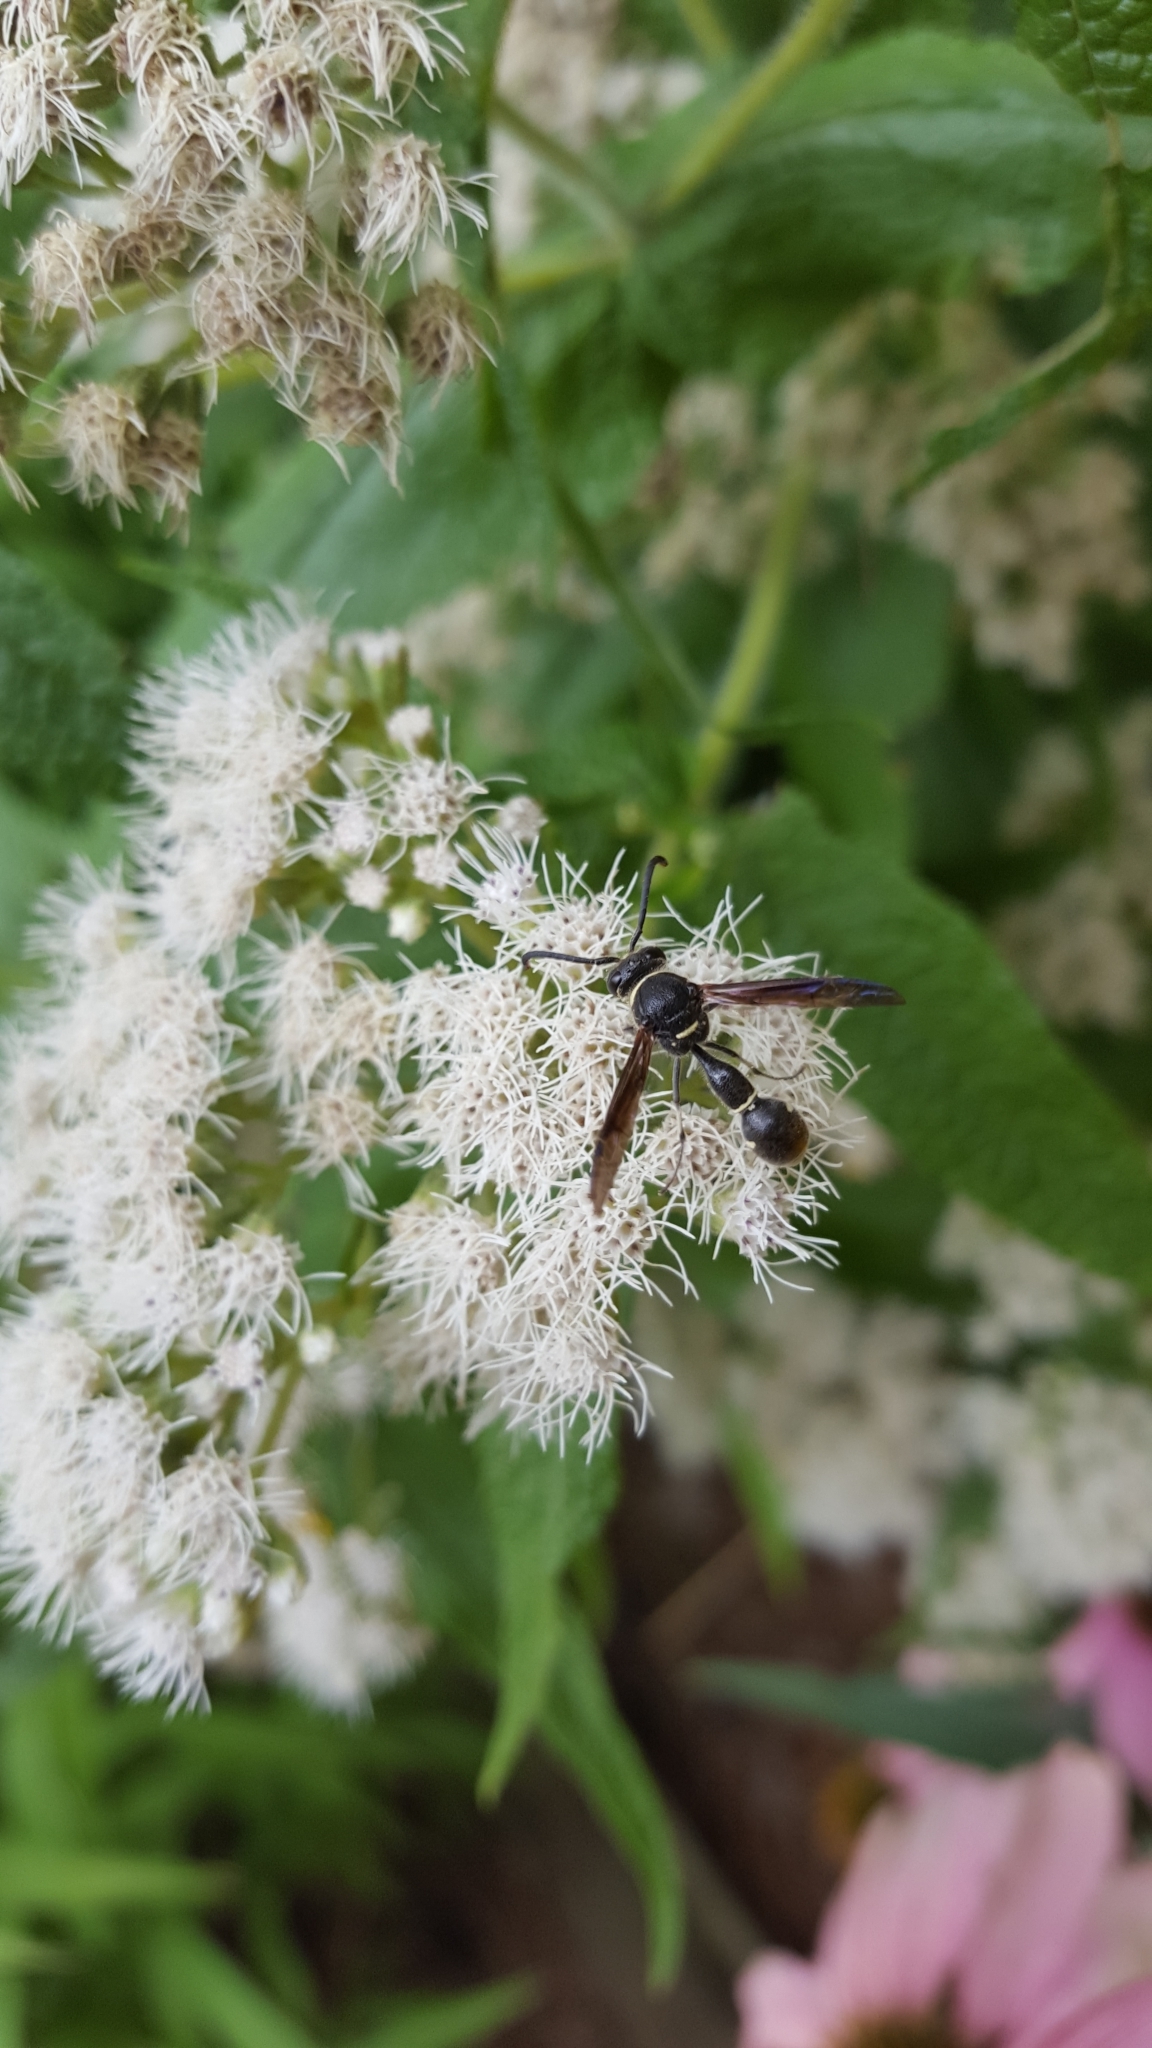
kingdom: Animalia
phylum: Arthropoda
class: Insecta
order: Hymenoptera
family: Vespidae
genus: Eumenes
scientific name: Eumenes fraternus
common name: Fraternal potter wasp
